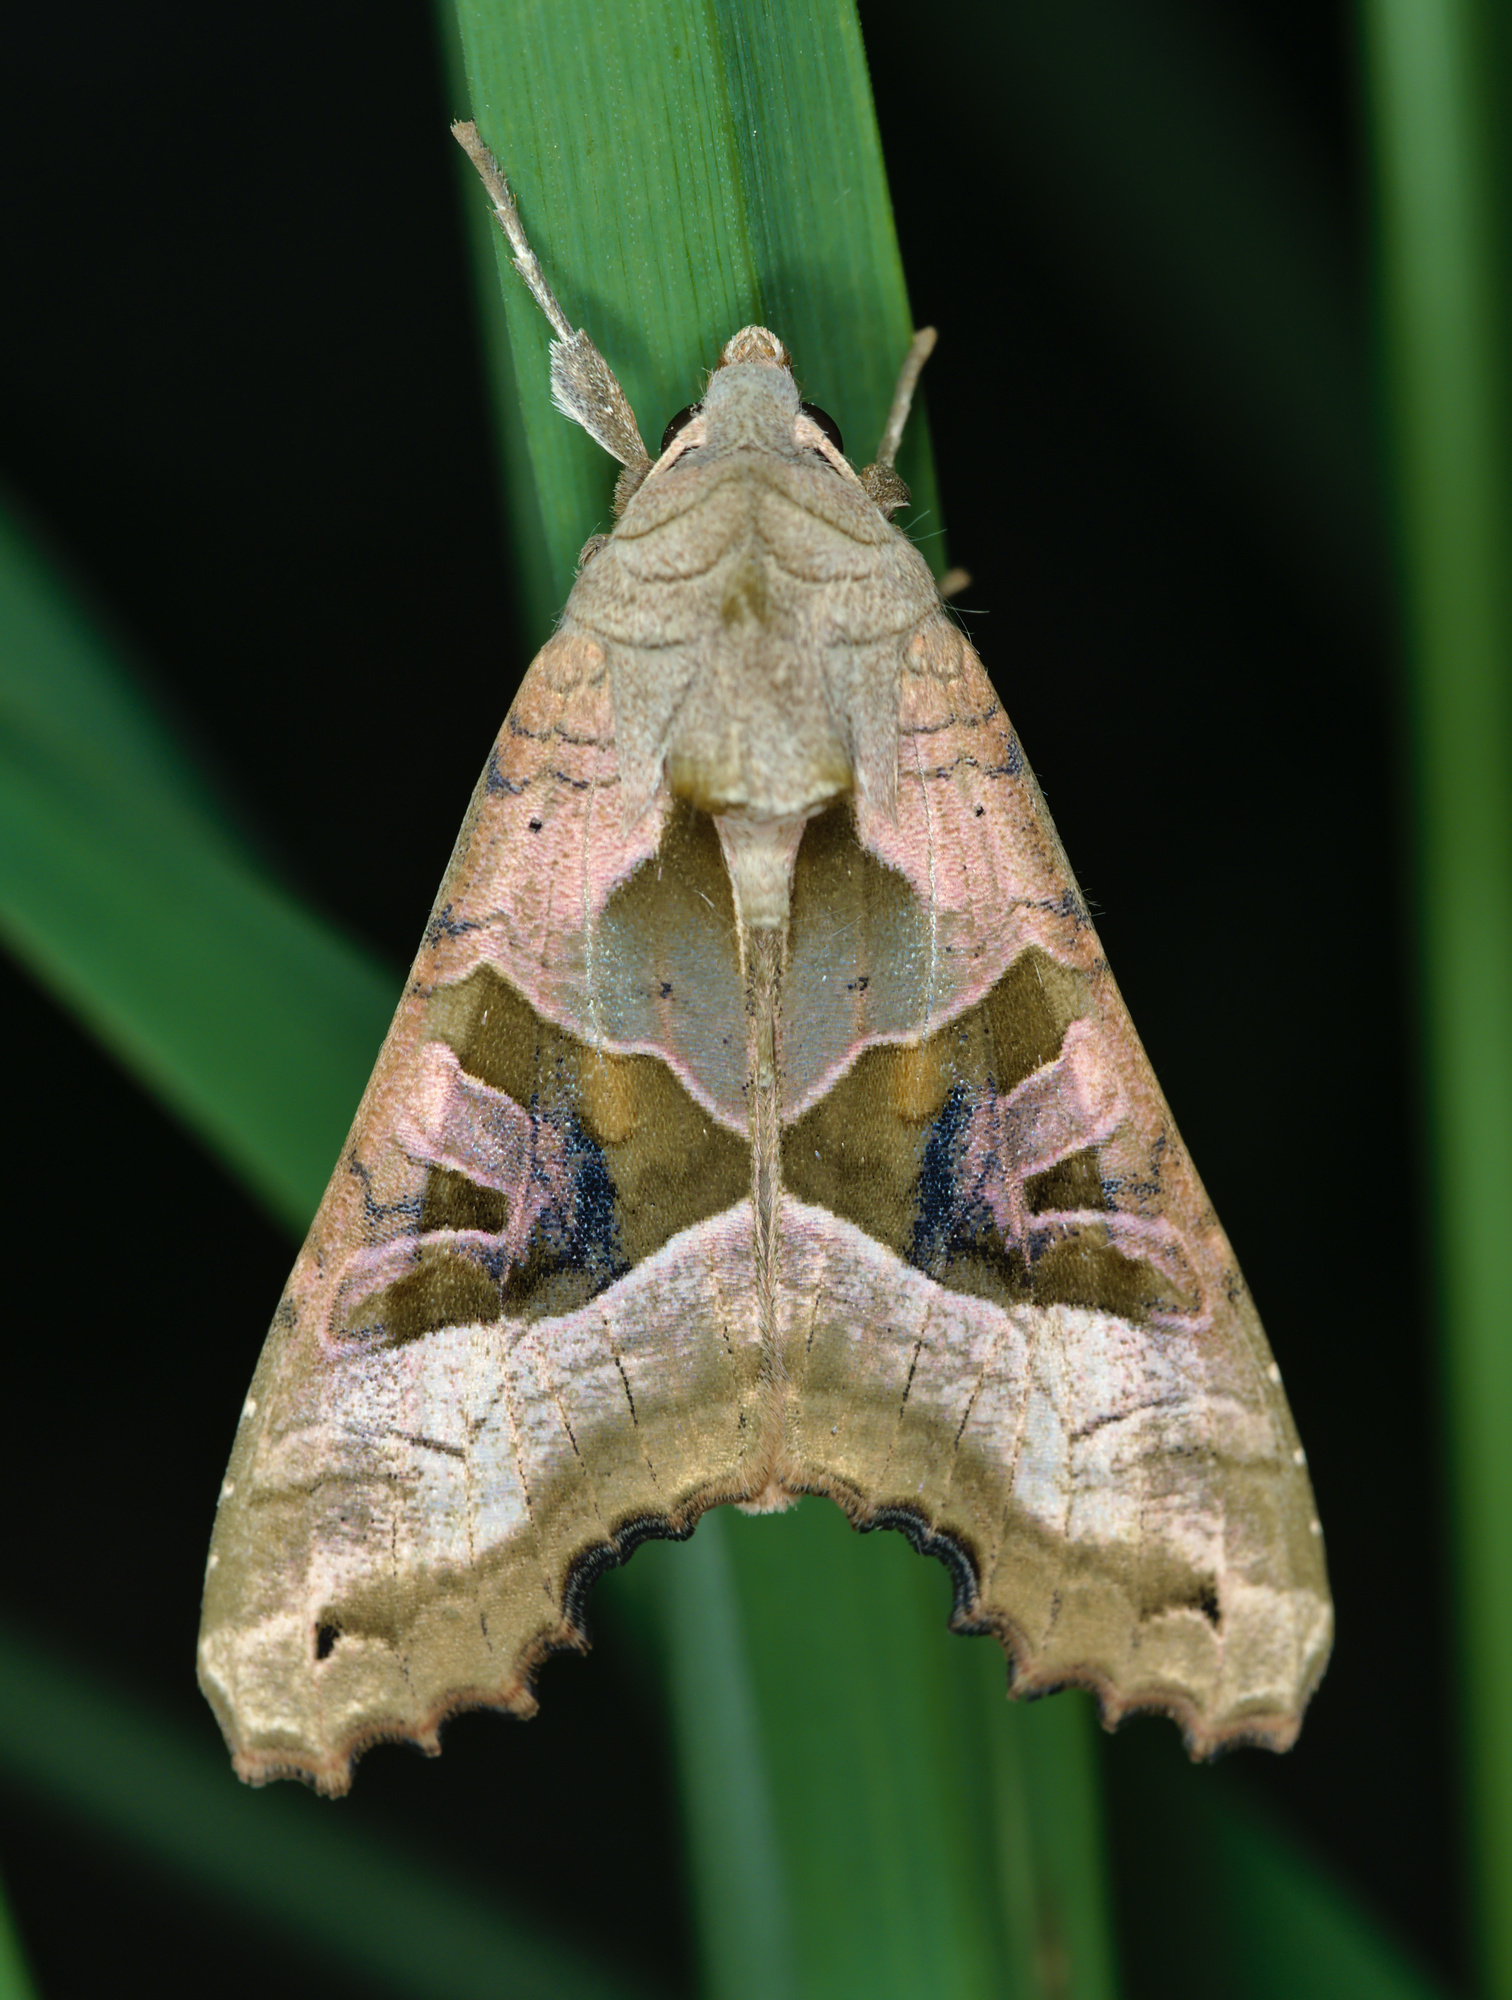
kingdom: Animalia
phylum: Arthropoda
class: Insecta
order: Lepidoptera
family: Noctuidae
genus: Phlogophora
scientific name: Phlogophora meticulosa
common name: Angle shades
